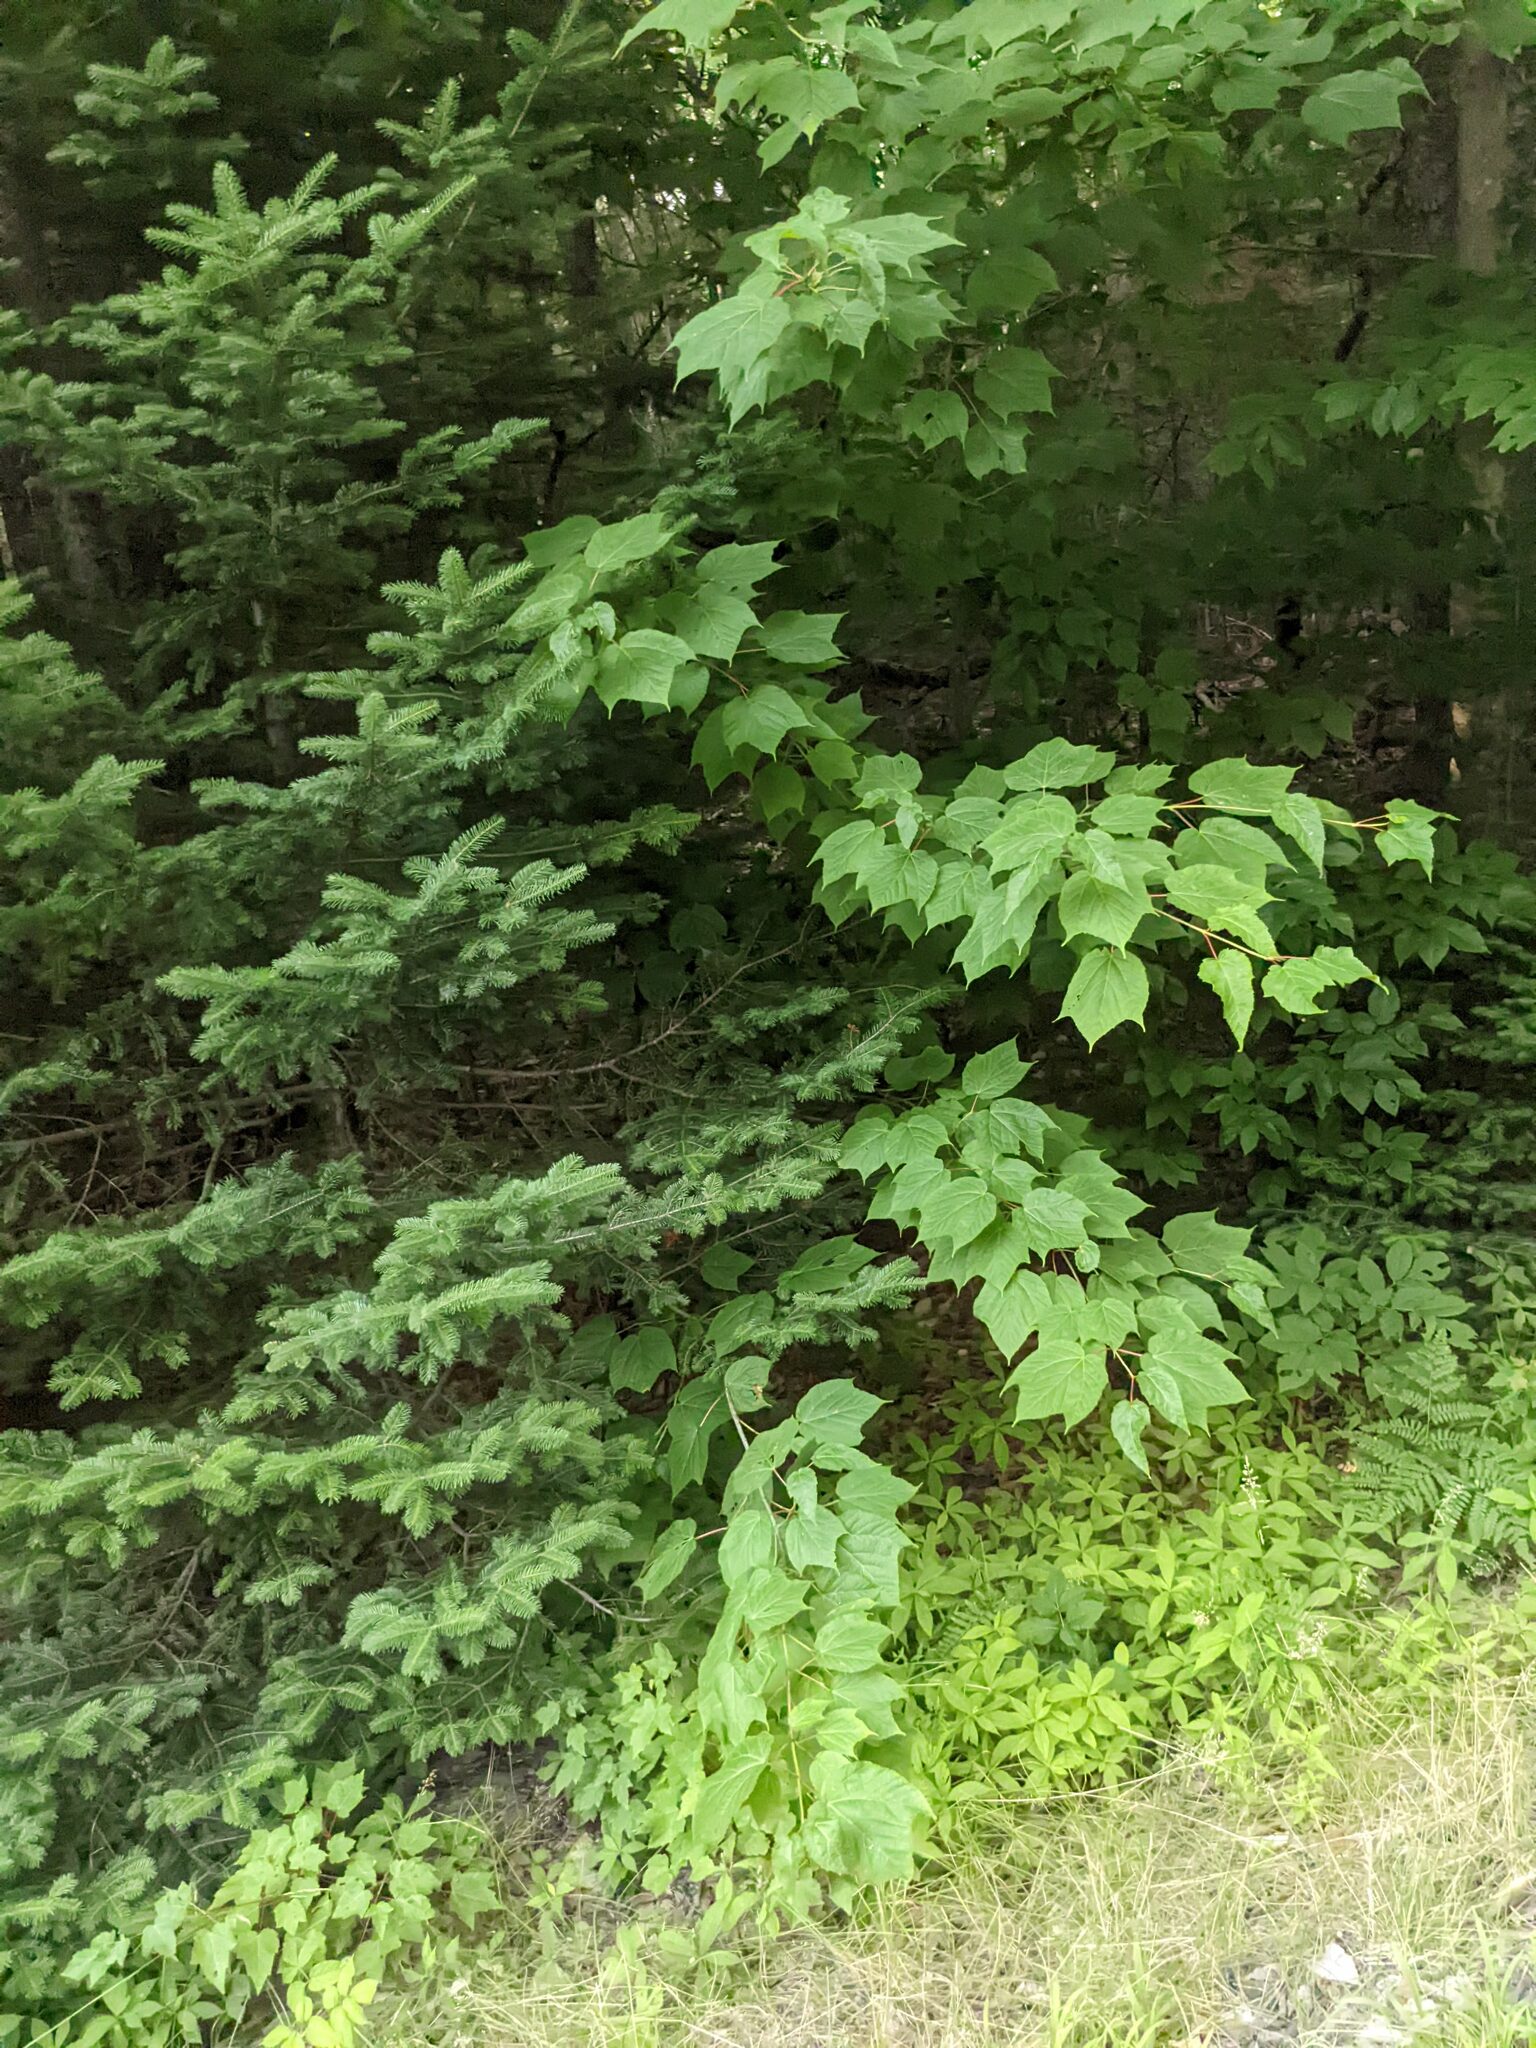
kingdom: Plantae
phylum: Tracheophyta
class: Magnoliopsida
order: Sapindales
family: Sapindaceae
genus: Acer
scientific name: Acer pensylvanicum
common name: Moosewood
